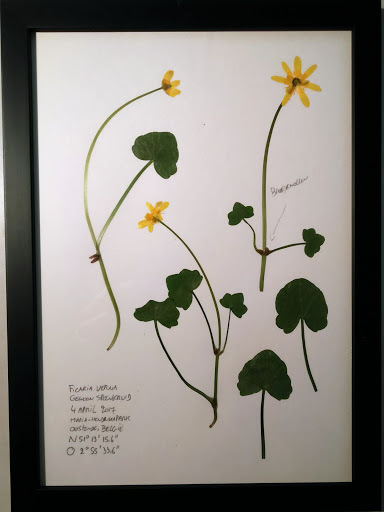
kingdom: Plantae
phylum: Tracheophyta
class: Magnoliopsida
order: Ranunculales
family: Ranunculaceae
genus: Ficaria
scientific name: Ficaria verna
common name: Lesser celandine
